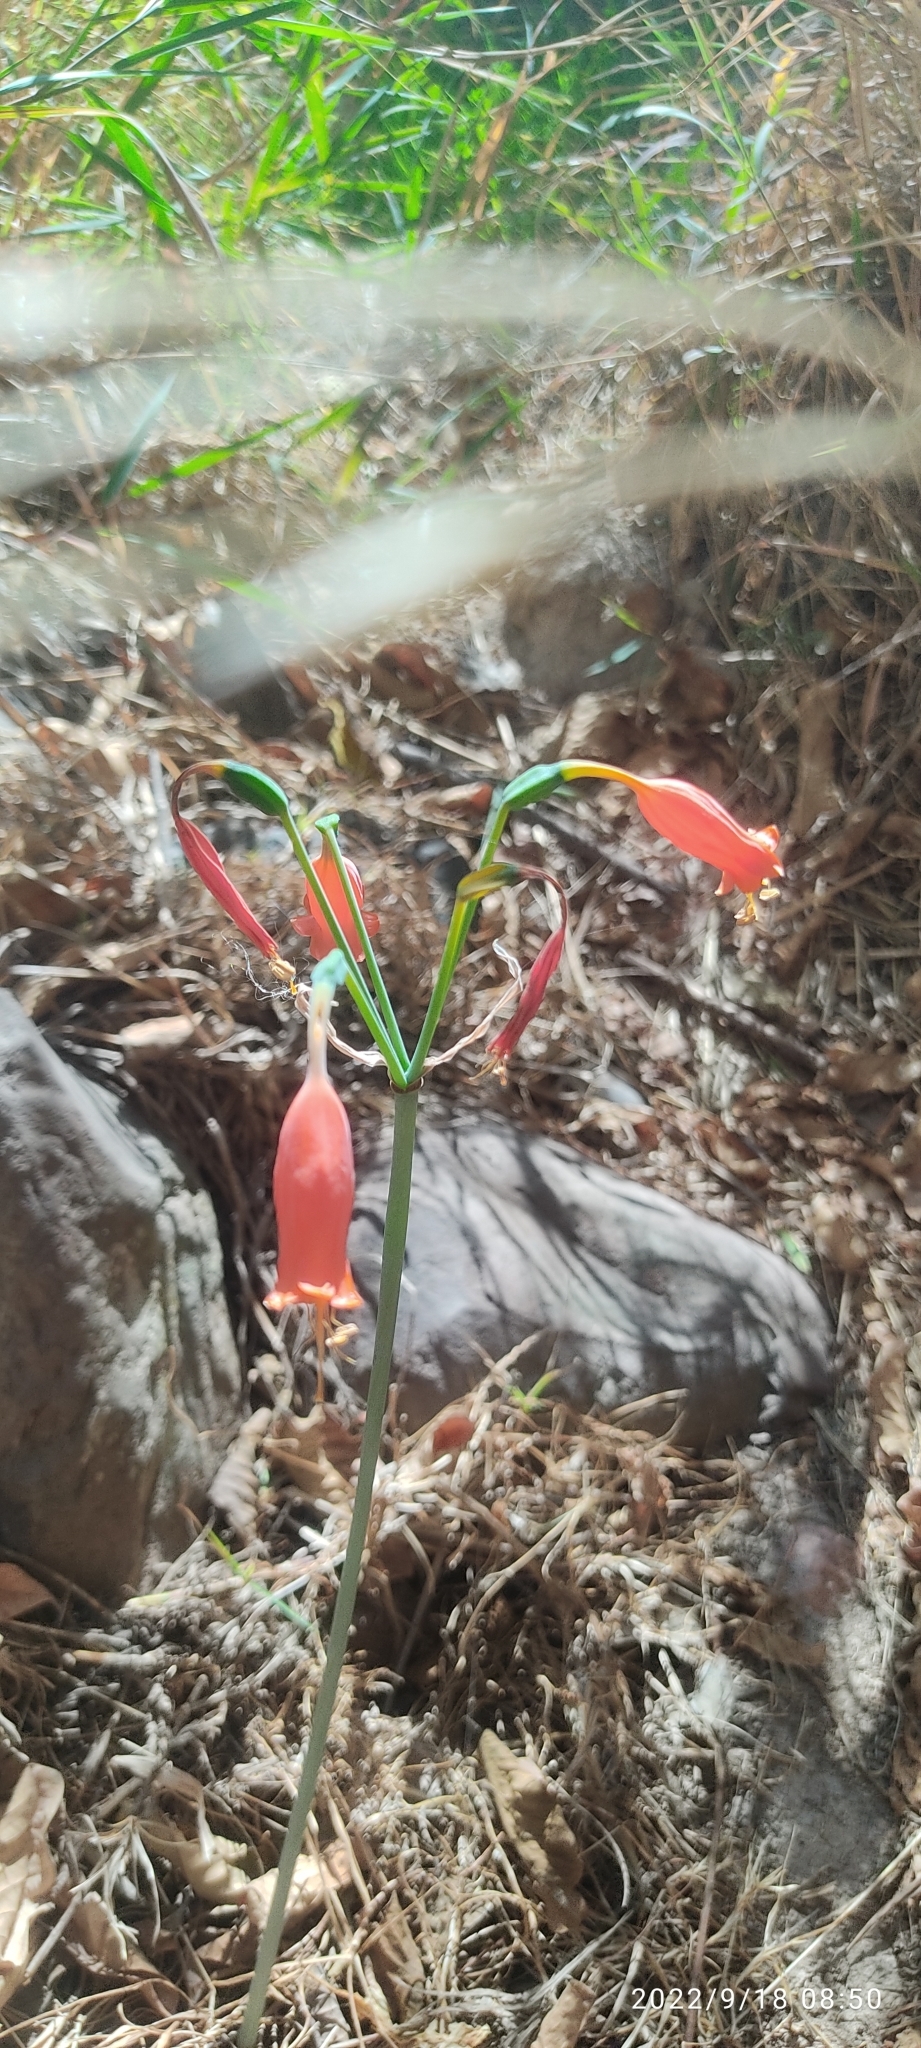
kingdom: Plantae
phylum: Tracheophyta
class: Liliopsida
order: Asparagales
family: Amaryllidaceae
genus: Stenomesson
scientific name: Stenomesson miniatum
